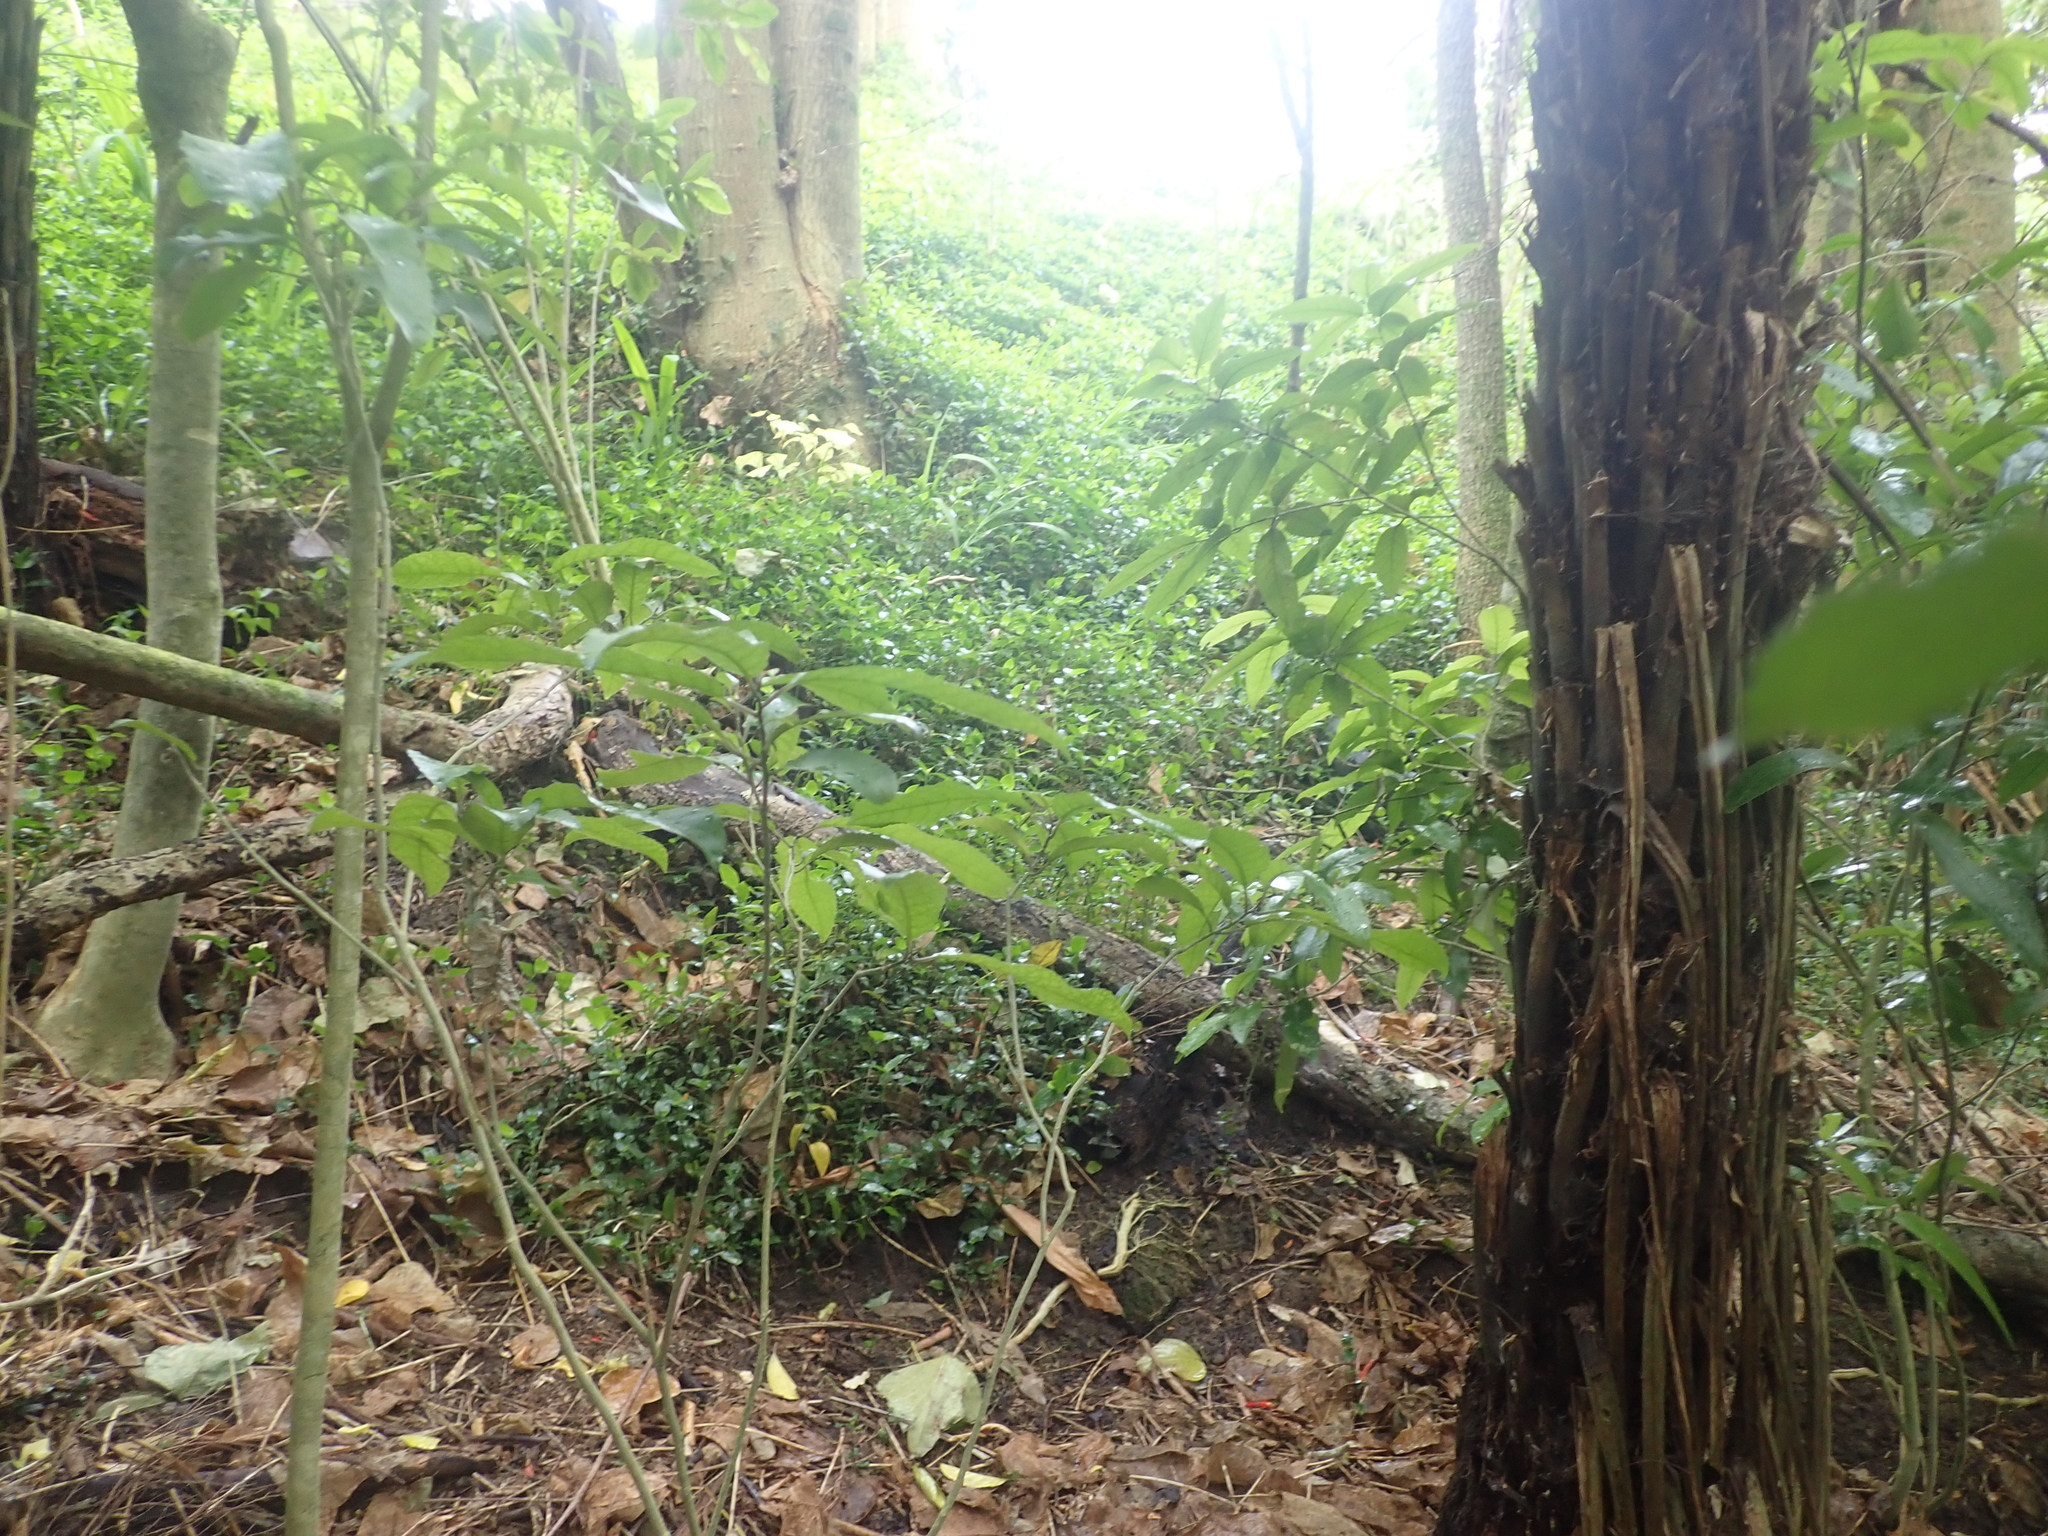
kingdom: Plantae
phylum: Tracheophyta
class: Magnoliopsida
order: Malpighiales
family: Violaceae
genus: Melicytus
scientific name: Melicytus ramiflorus
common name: Mahoe
